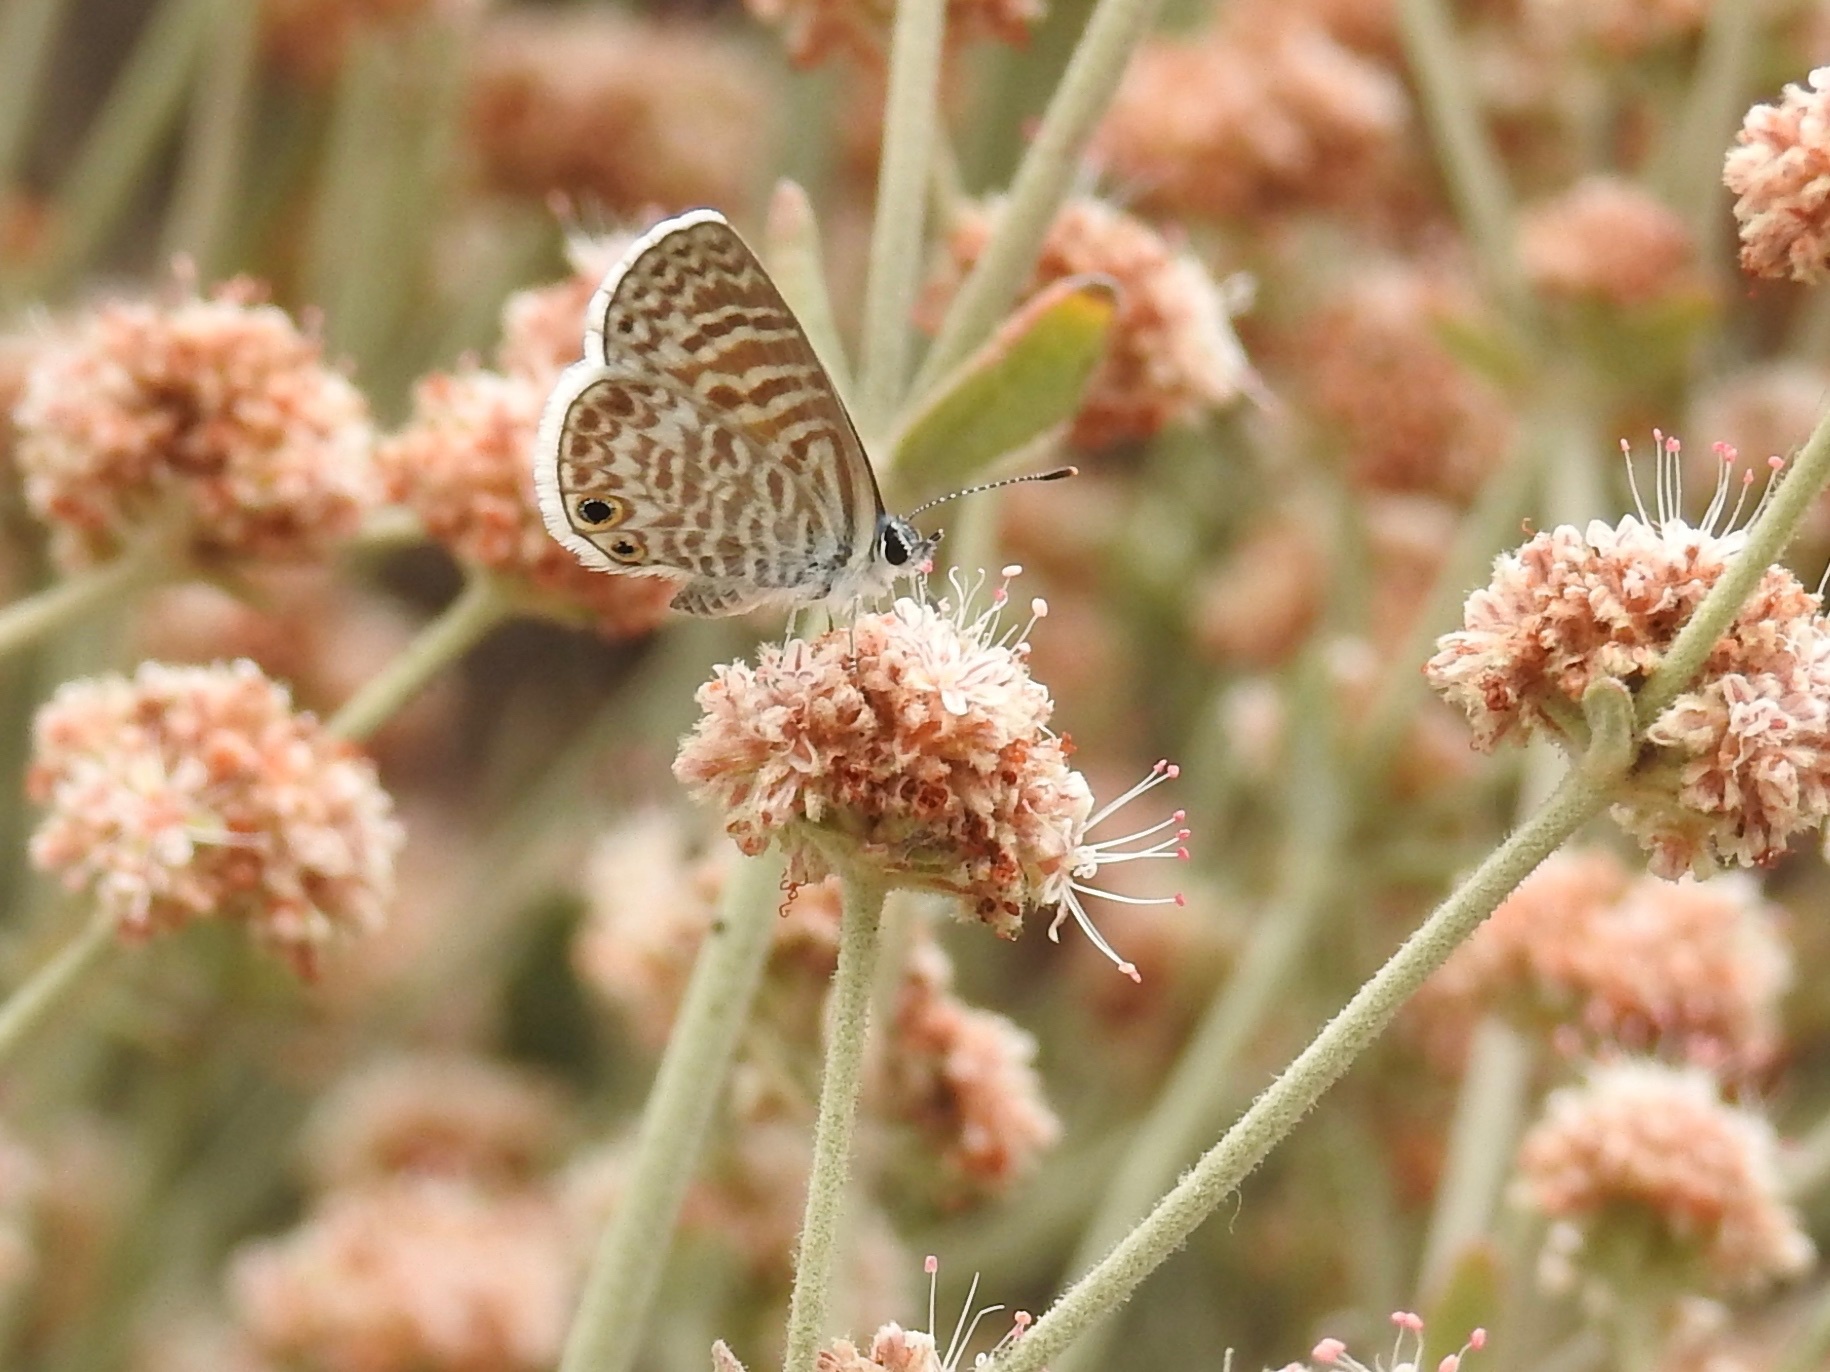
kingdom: Animalia
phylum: Arthropoda
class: Insecta
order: Lepidoptera
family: Lycaenidae
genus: Leptotes
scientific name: Leptotes marina
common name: Marine blue
